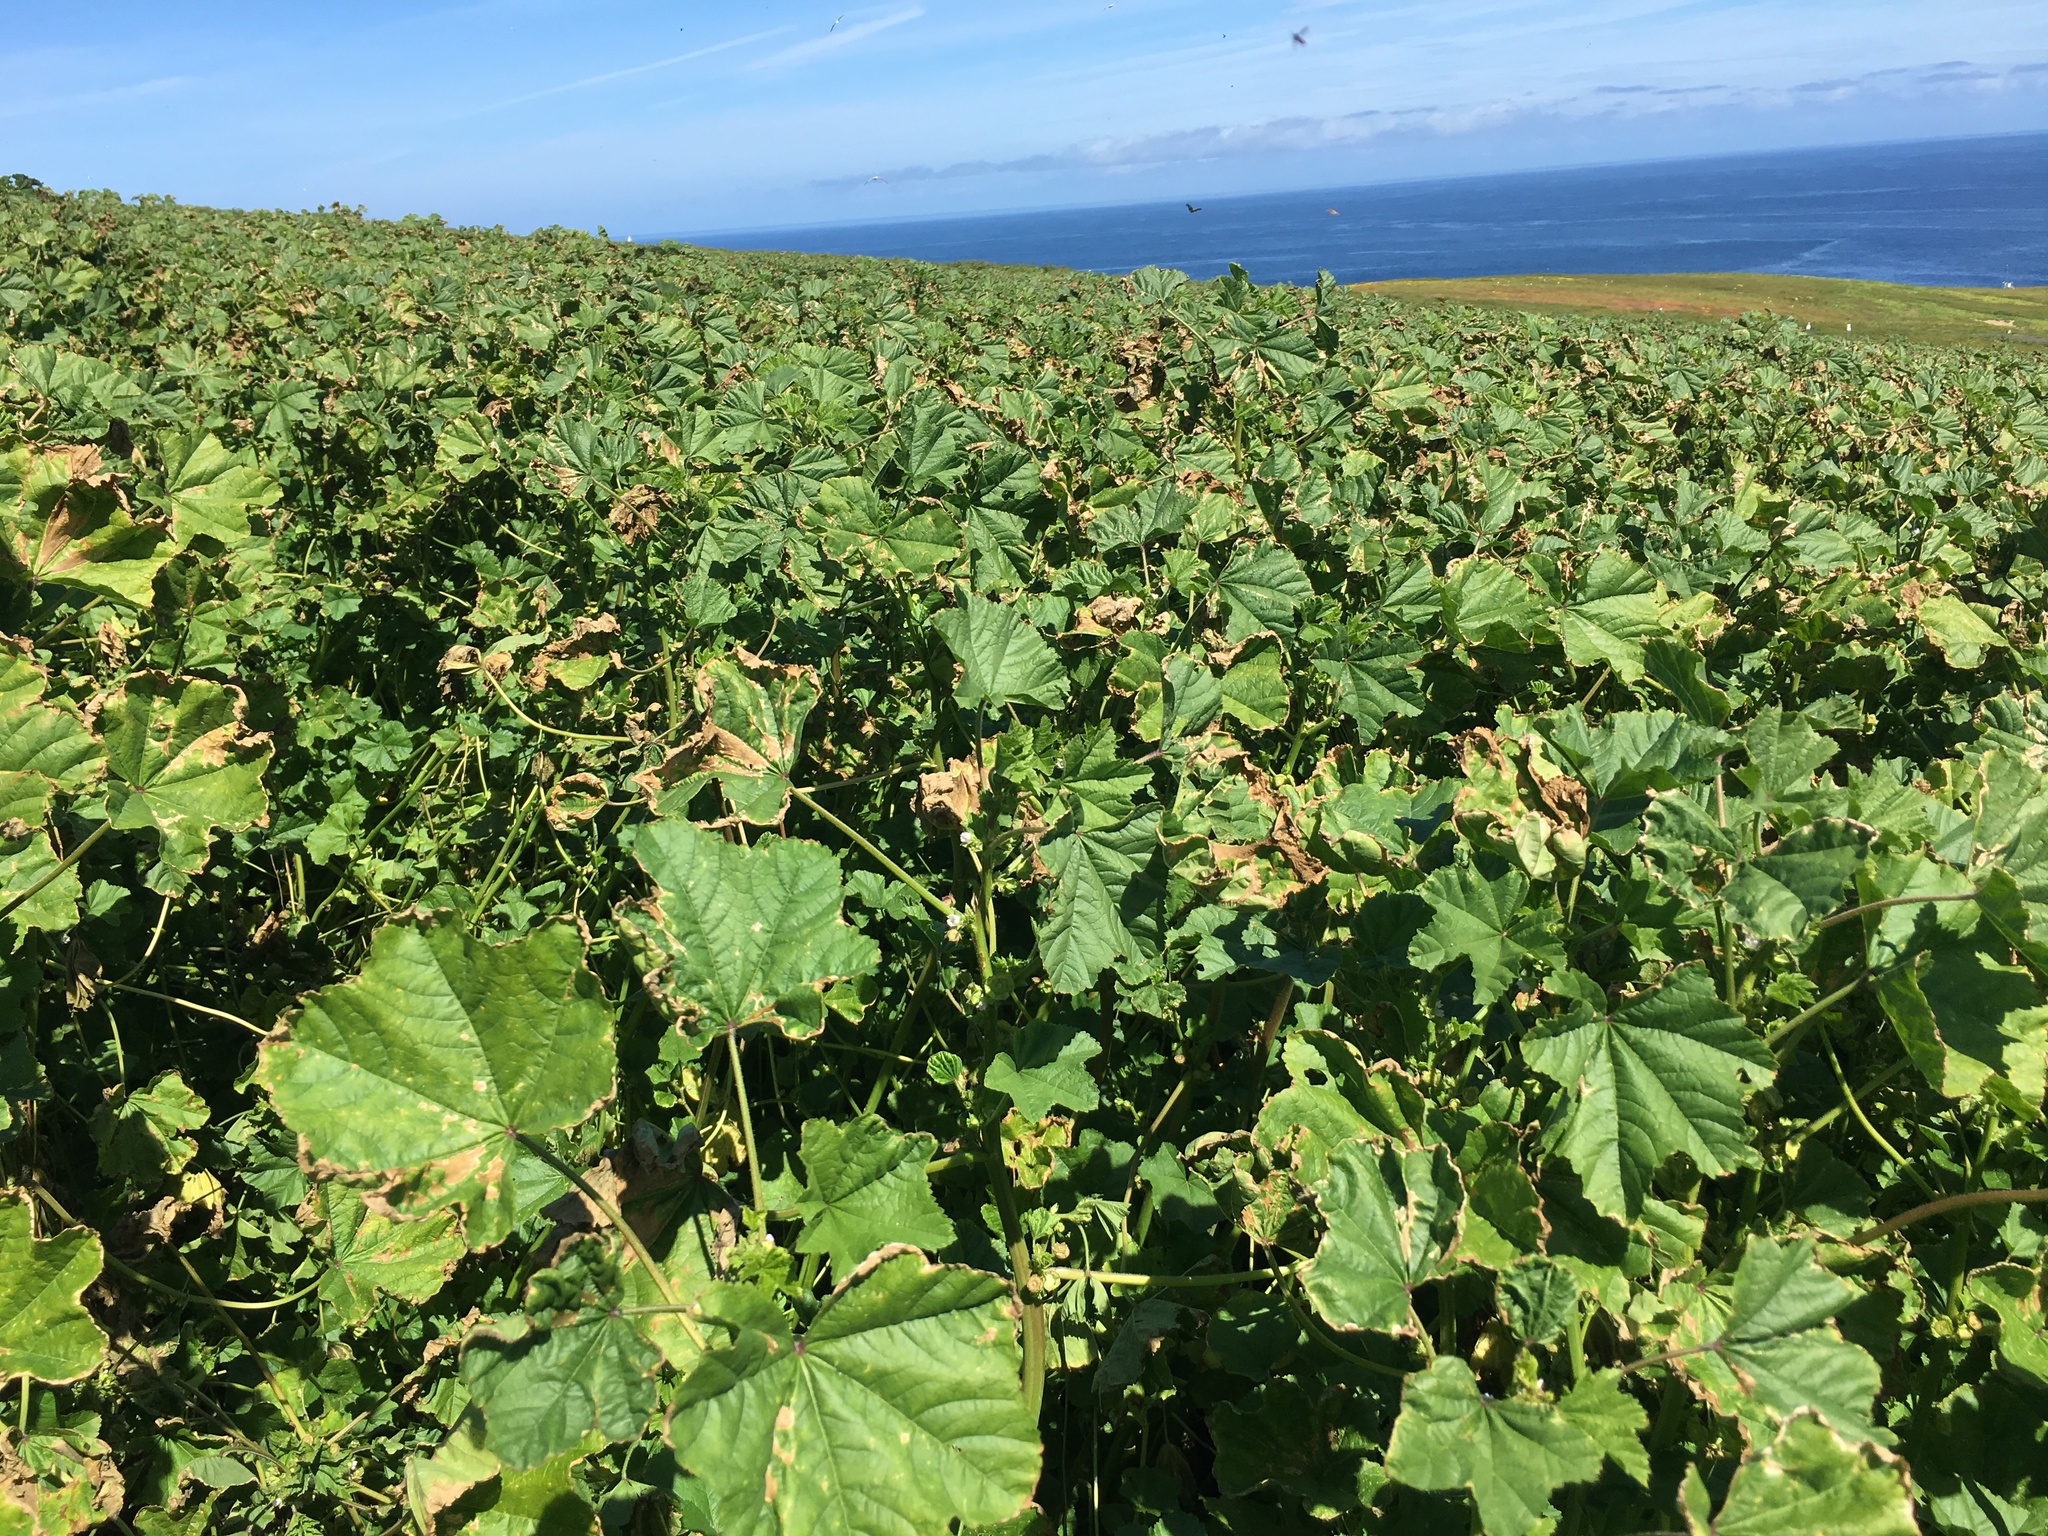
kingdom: Plantae
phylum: Tracheophyta
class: Magnoliopsida
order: Malvales
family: Malvaceae
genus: Malva
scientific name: Malva parviflora
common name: Least mallow
